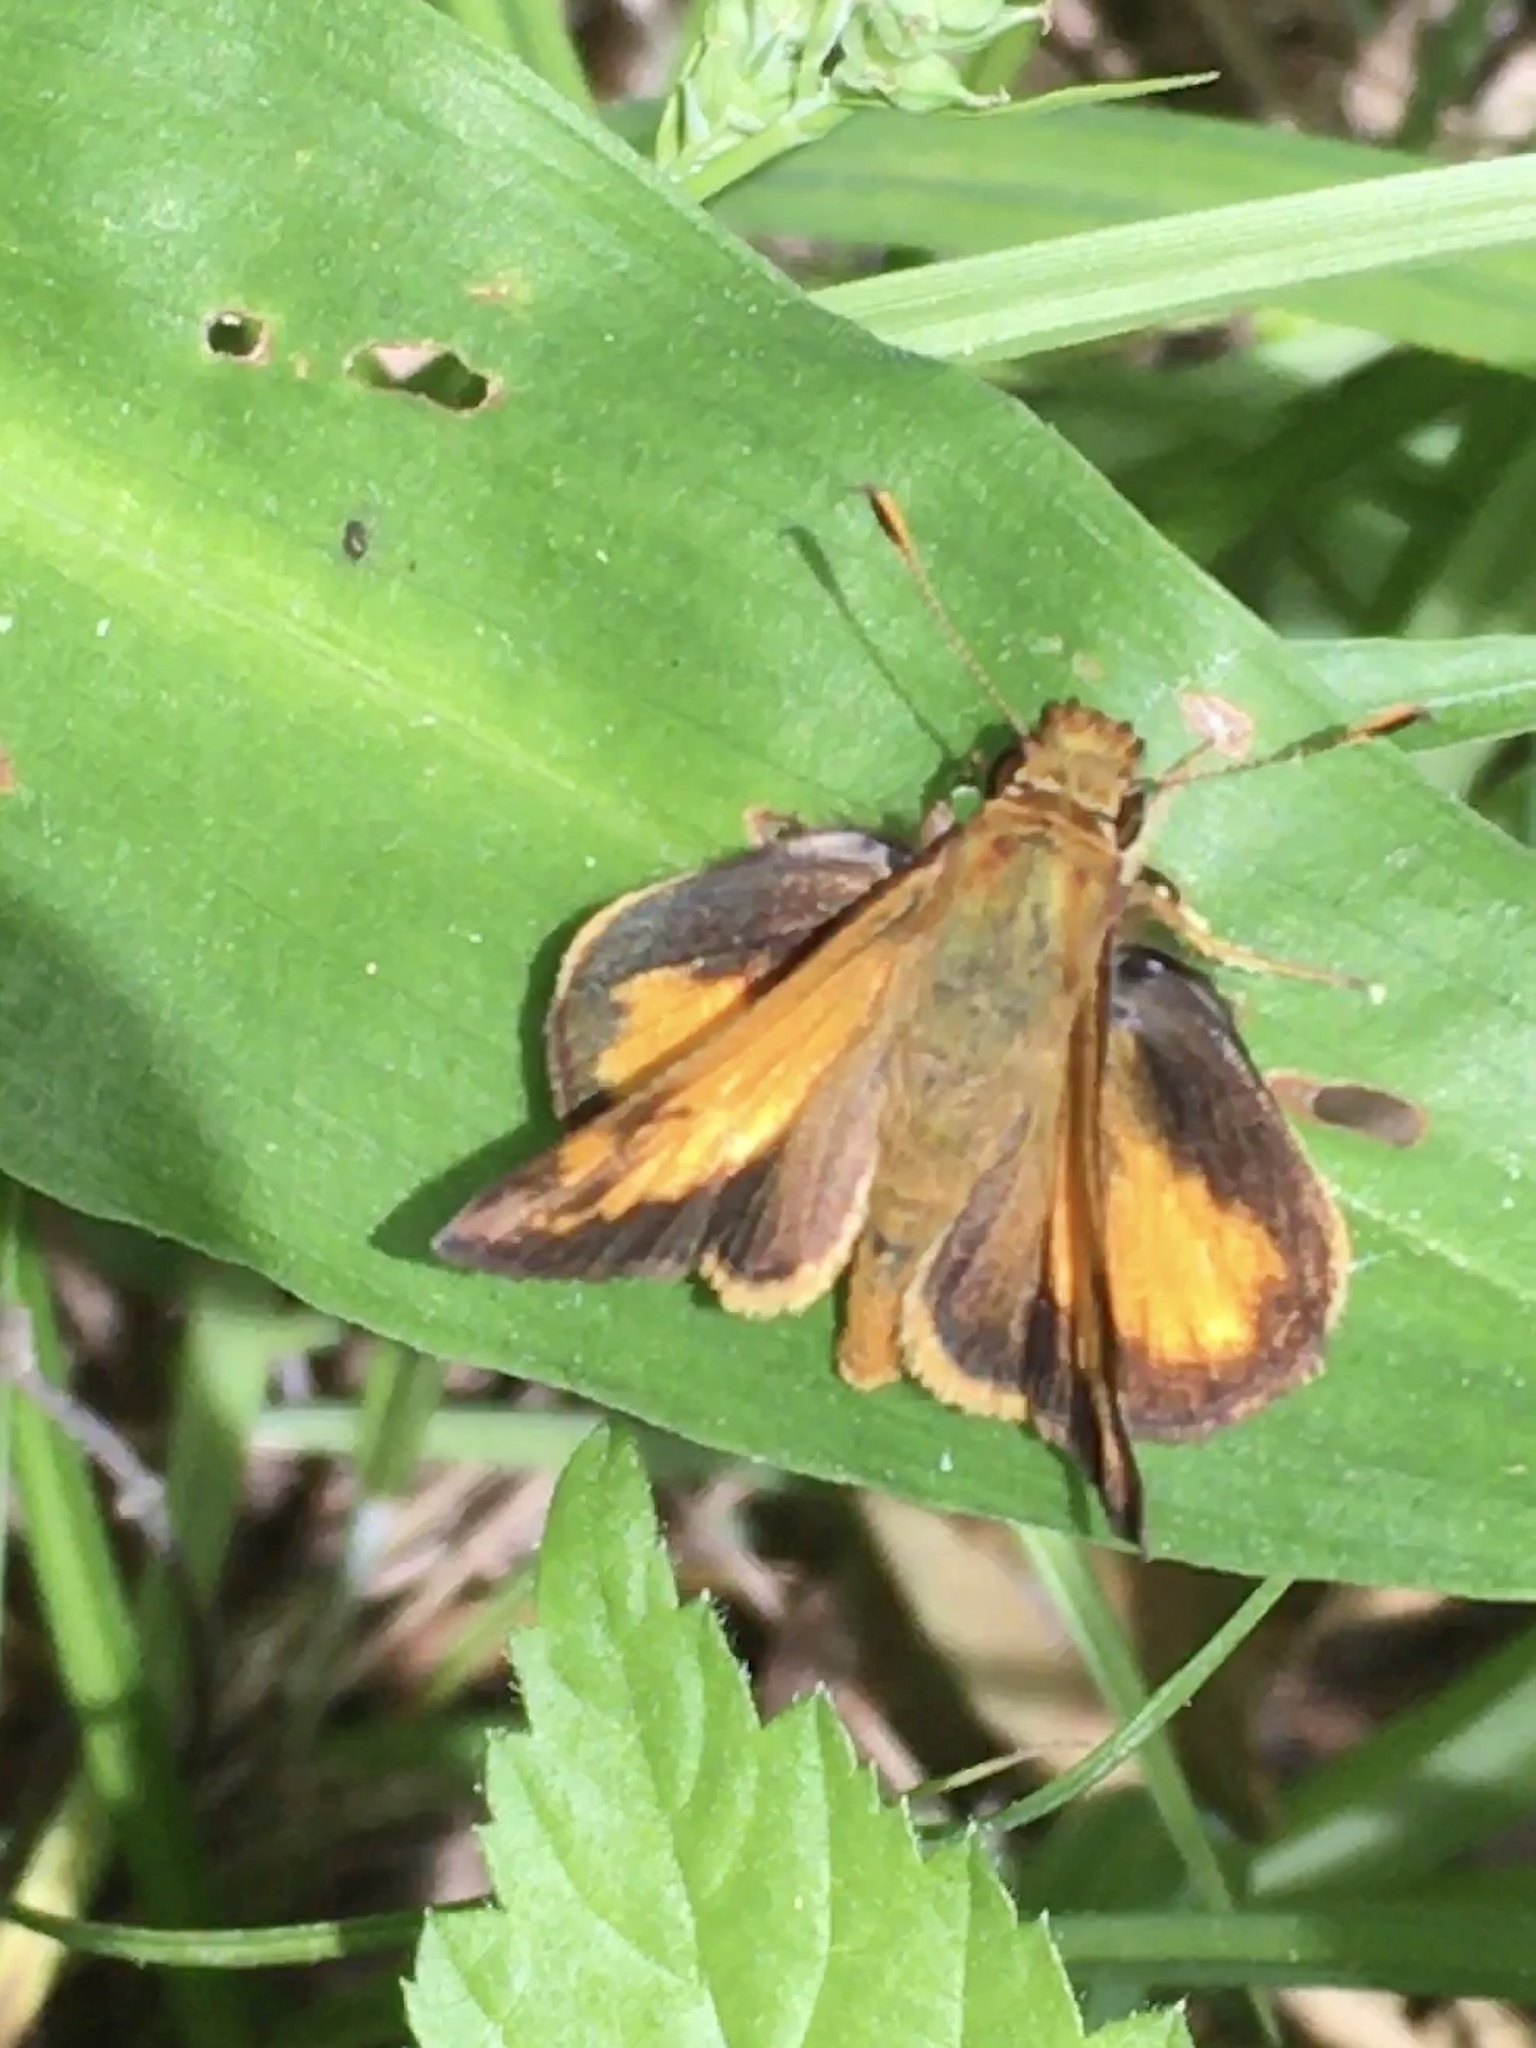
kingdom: Animalia
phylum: Arthropoda
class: Insecta
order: Lepidoptera
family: Hesperiidae
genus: Lon
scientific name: Lon zabulon
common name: Zabulon skipper
